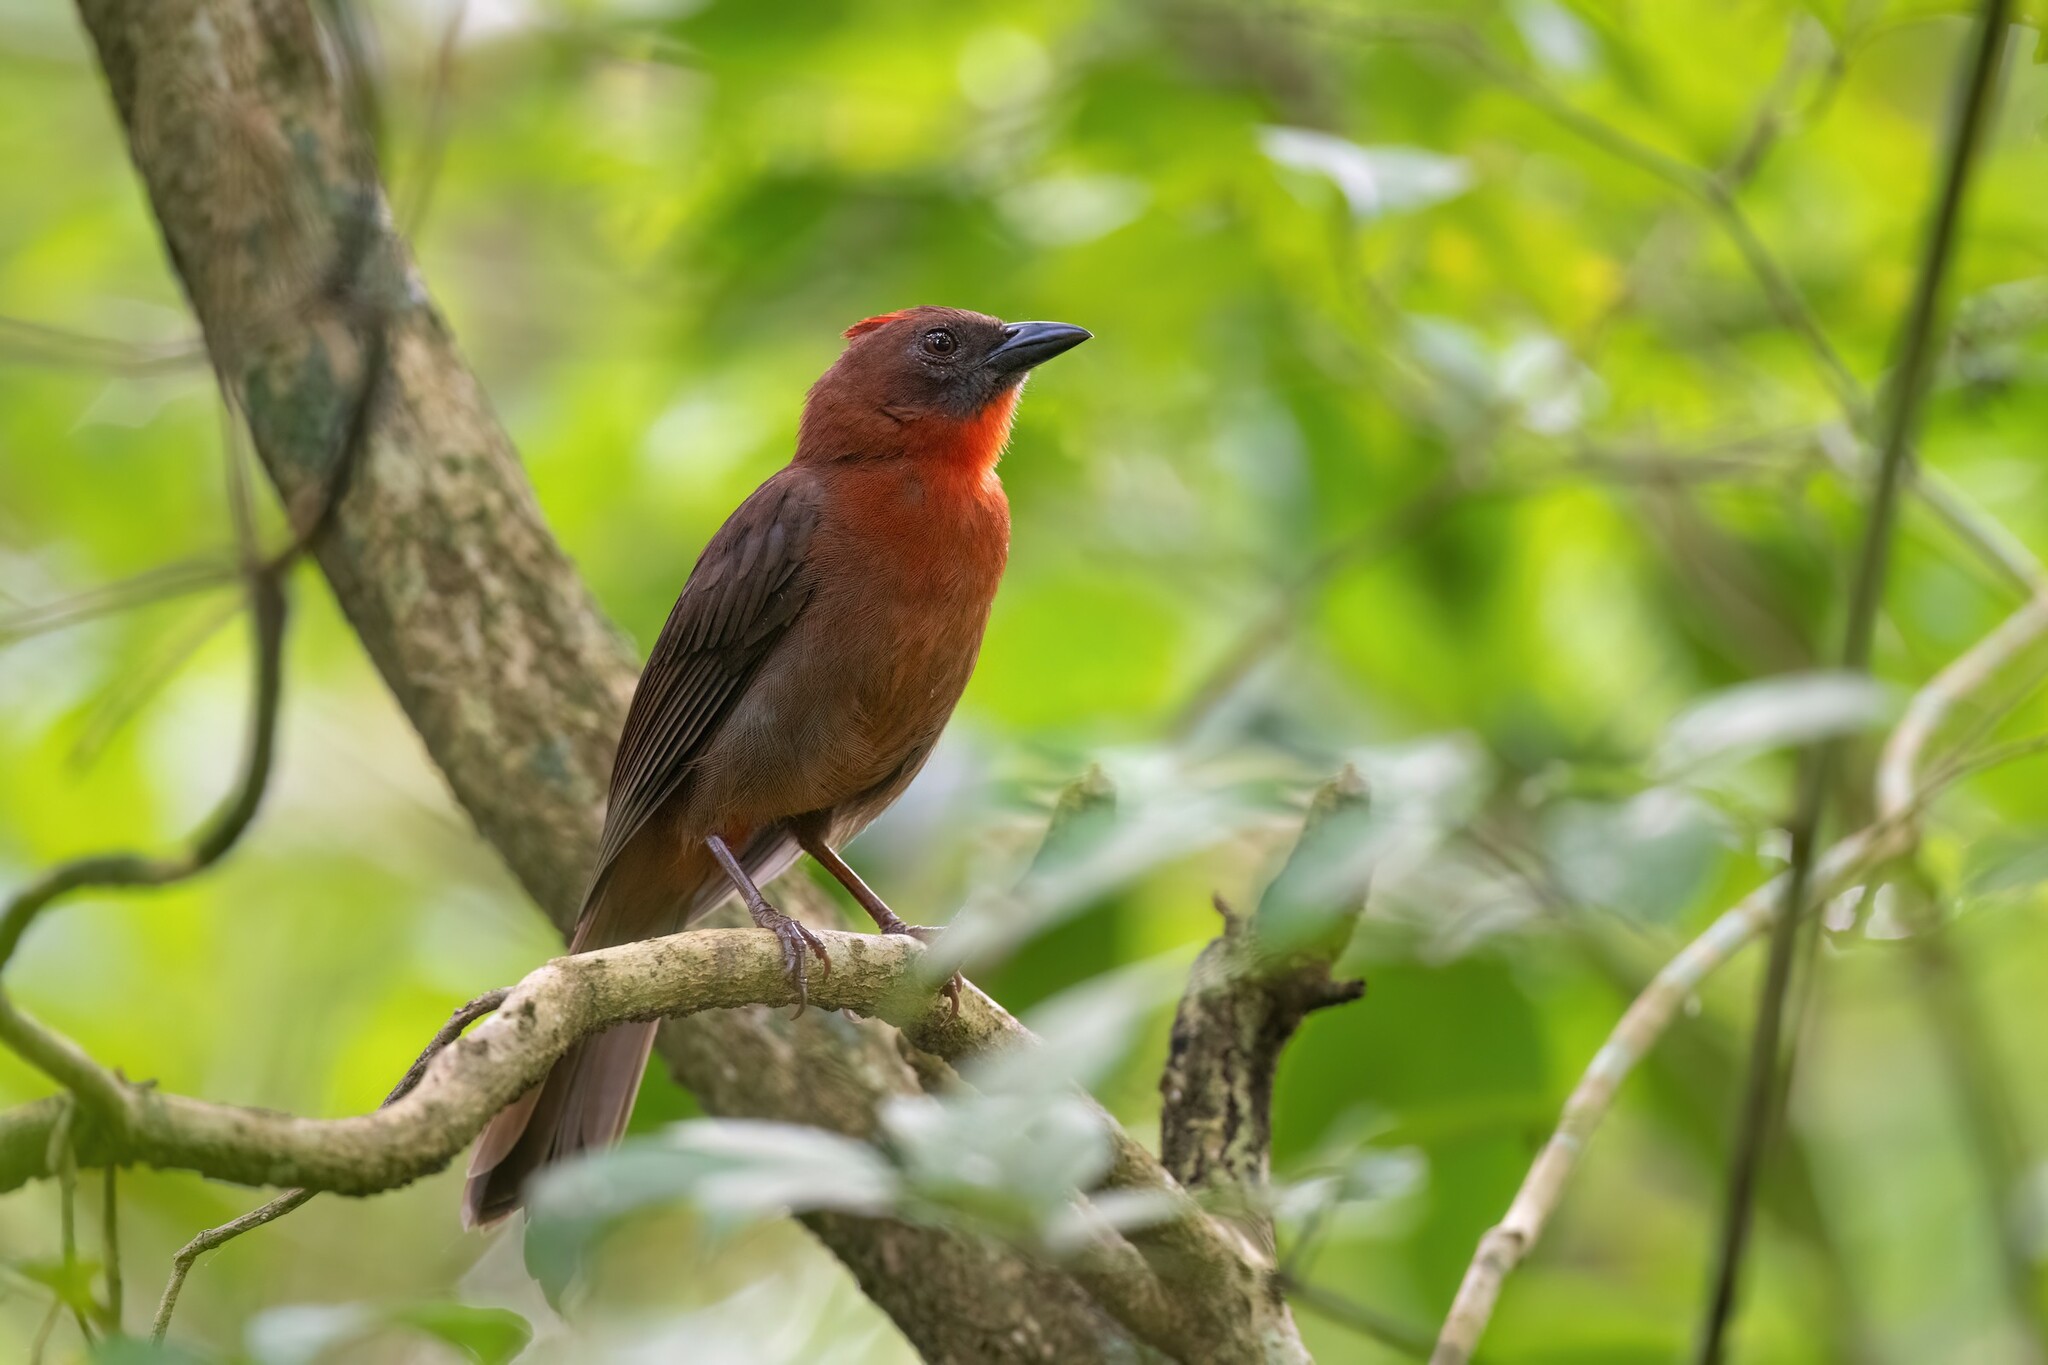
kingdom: Animalia
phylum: Chordata
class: Aves
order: Passeriformes
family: Cardinalidae
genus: Habia
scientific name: Habia fuscicauda
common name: Red-throated ant-tanager
